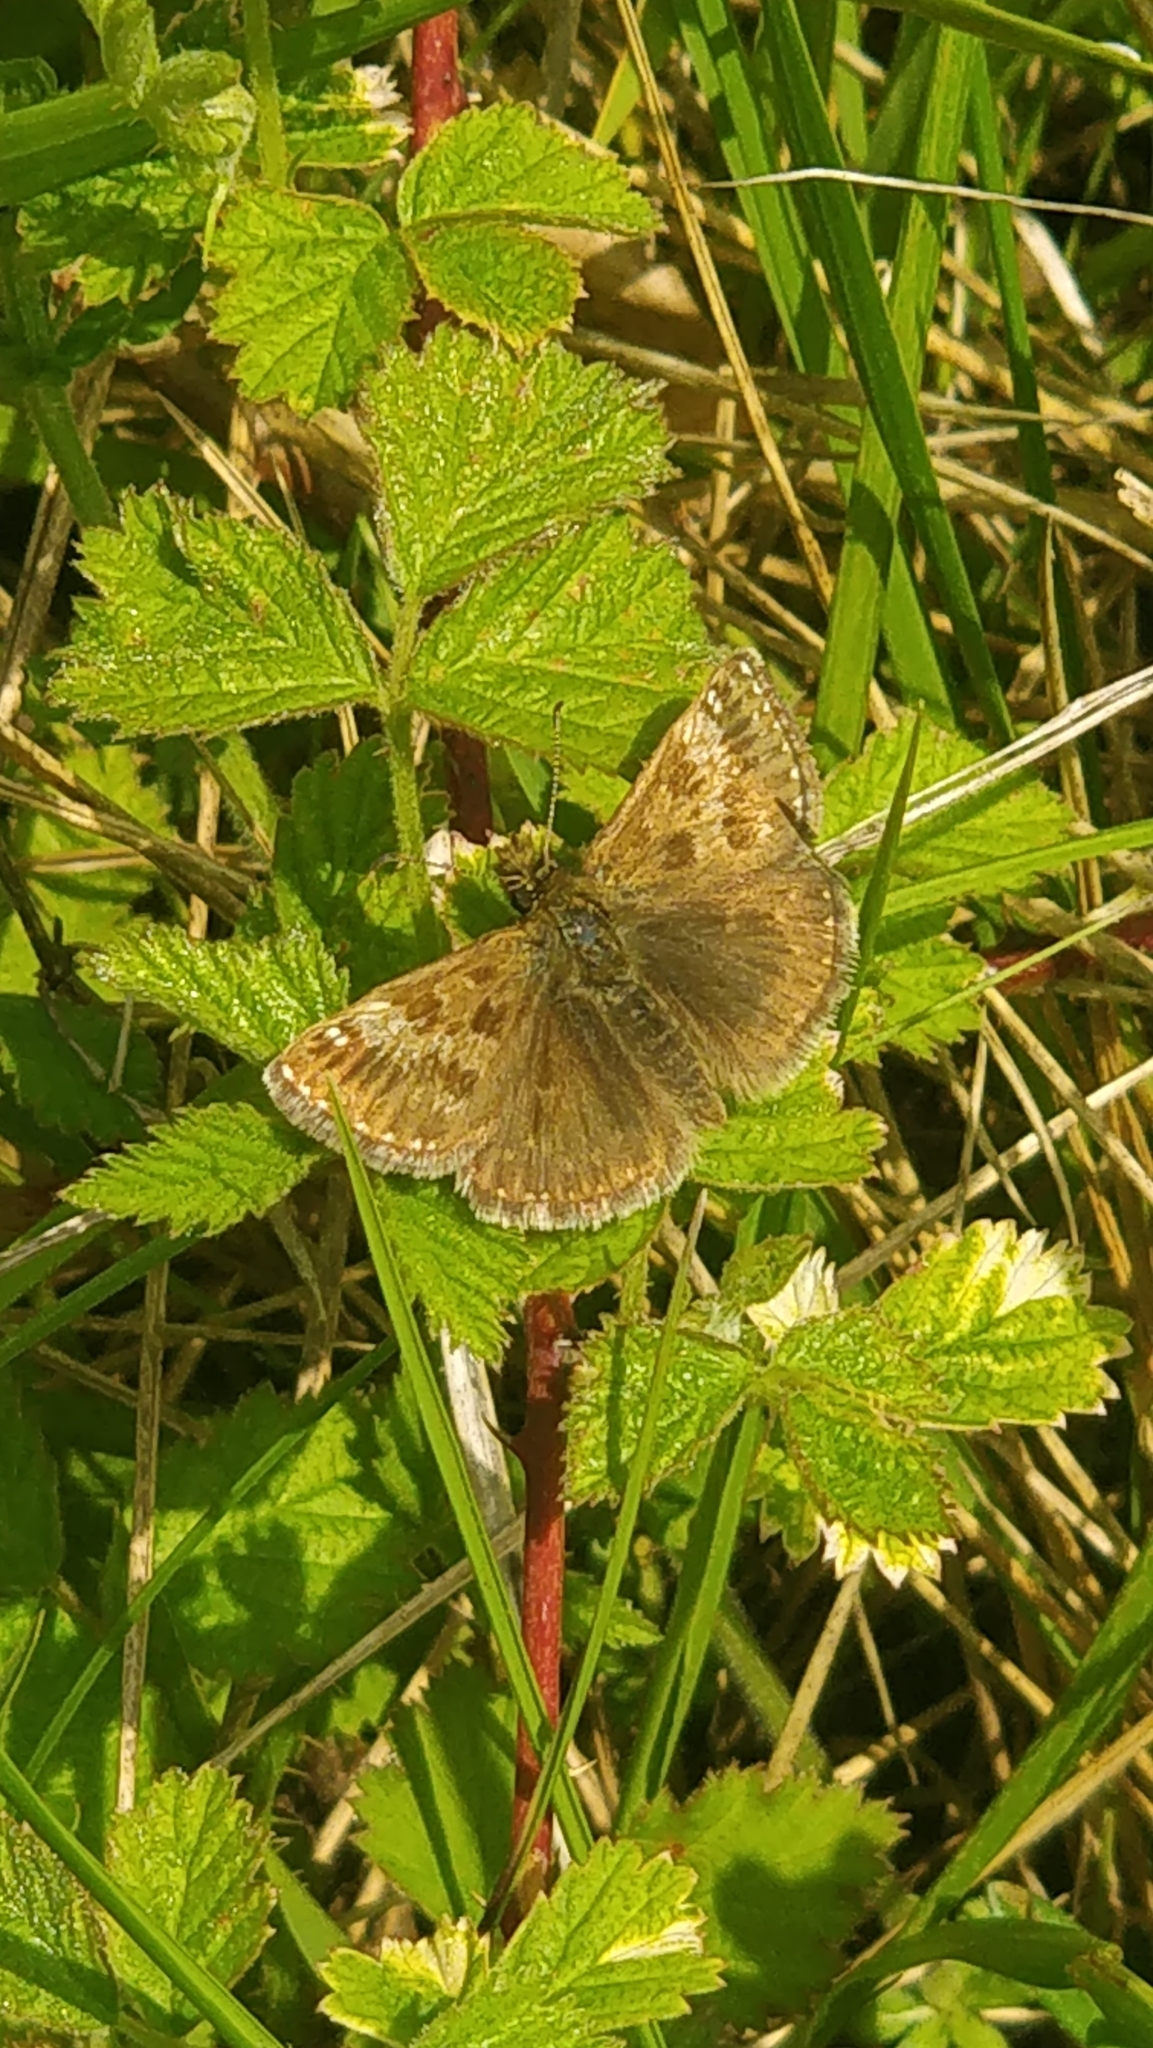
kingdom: Animalia
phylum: Arthropoda
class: Insecta
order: Lepidoptera
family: Hesperiidae
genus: Erynnis
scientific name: Erynnis tages
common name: Dingy skipper
